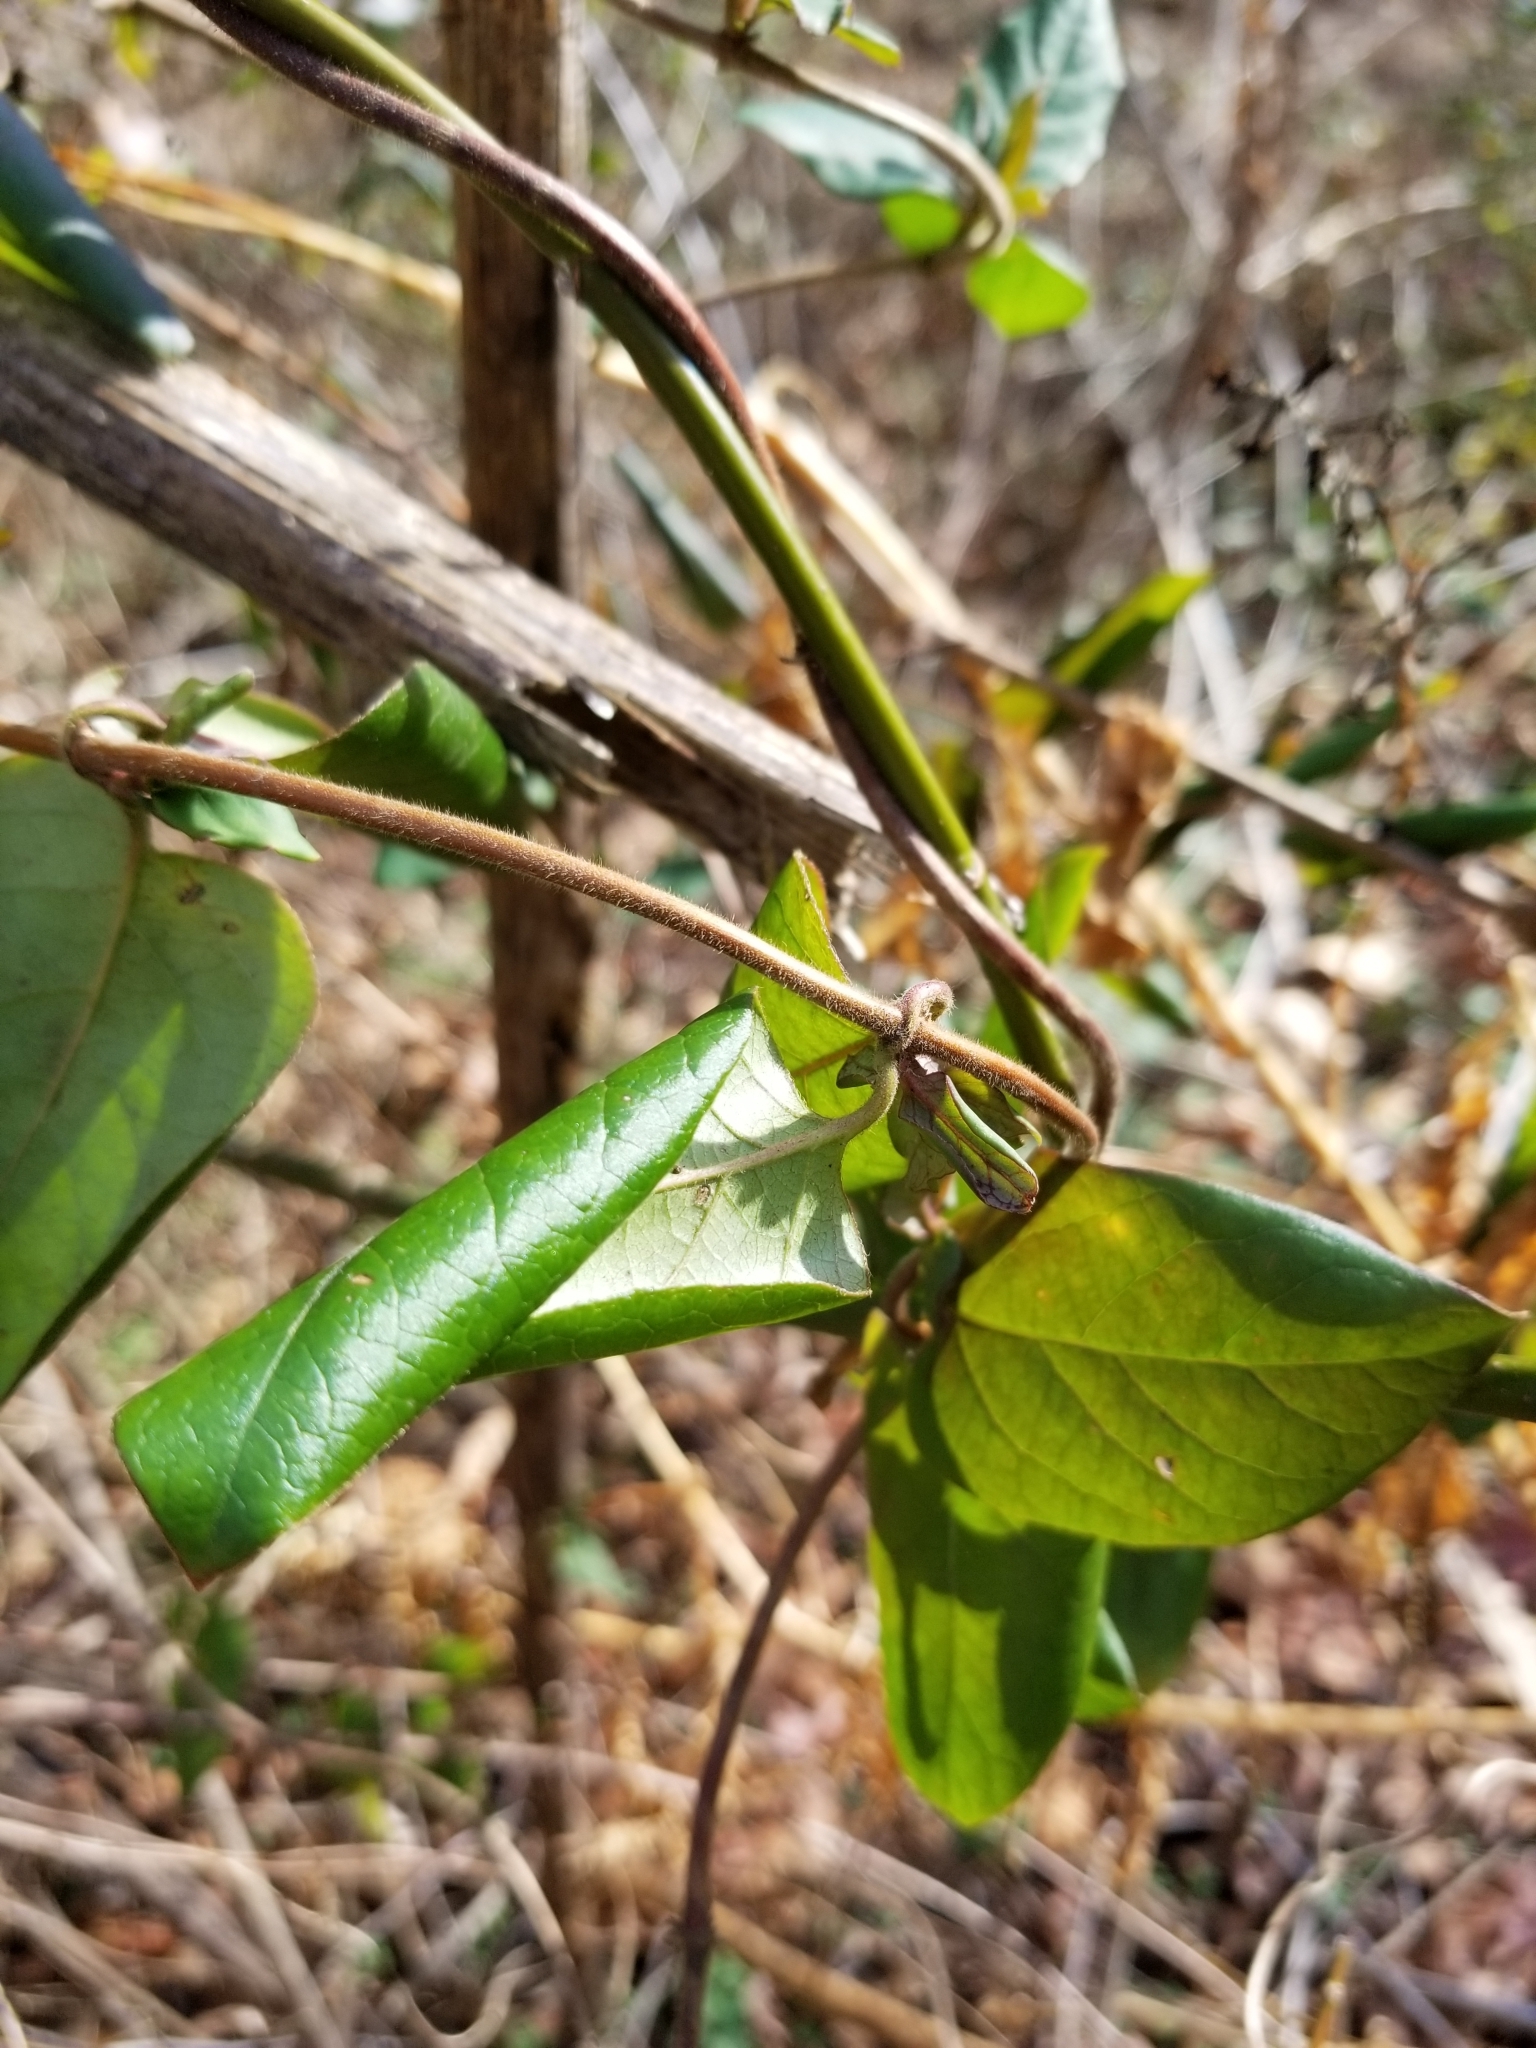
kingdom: Plantae
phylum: Tracheophyta
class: Magnoliopsida
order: Dipsacales
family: Caprifoliaceae
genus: Lonicera
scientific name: Lonicera japonica
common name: Japanese honeysuckle
